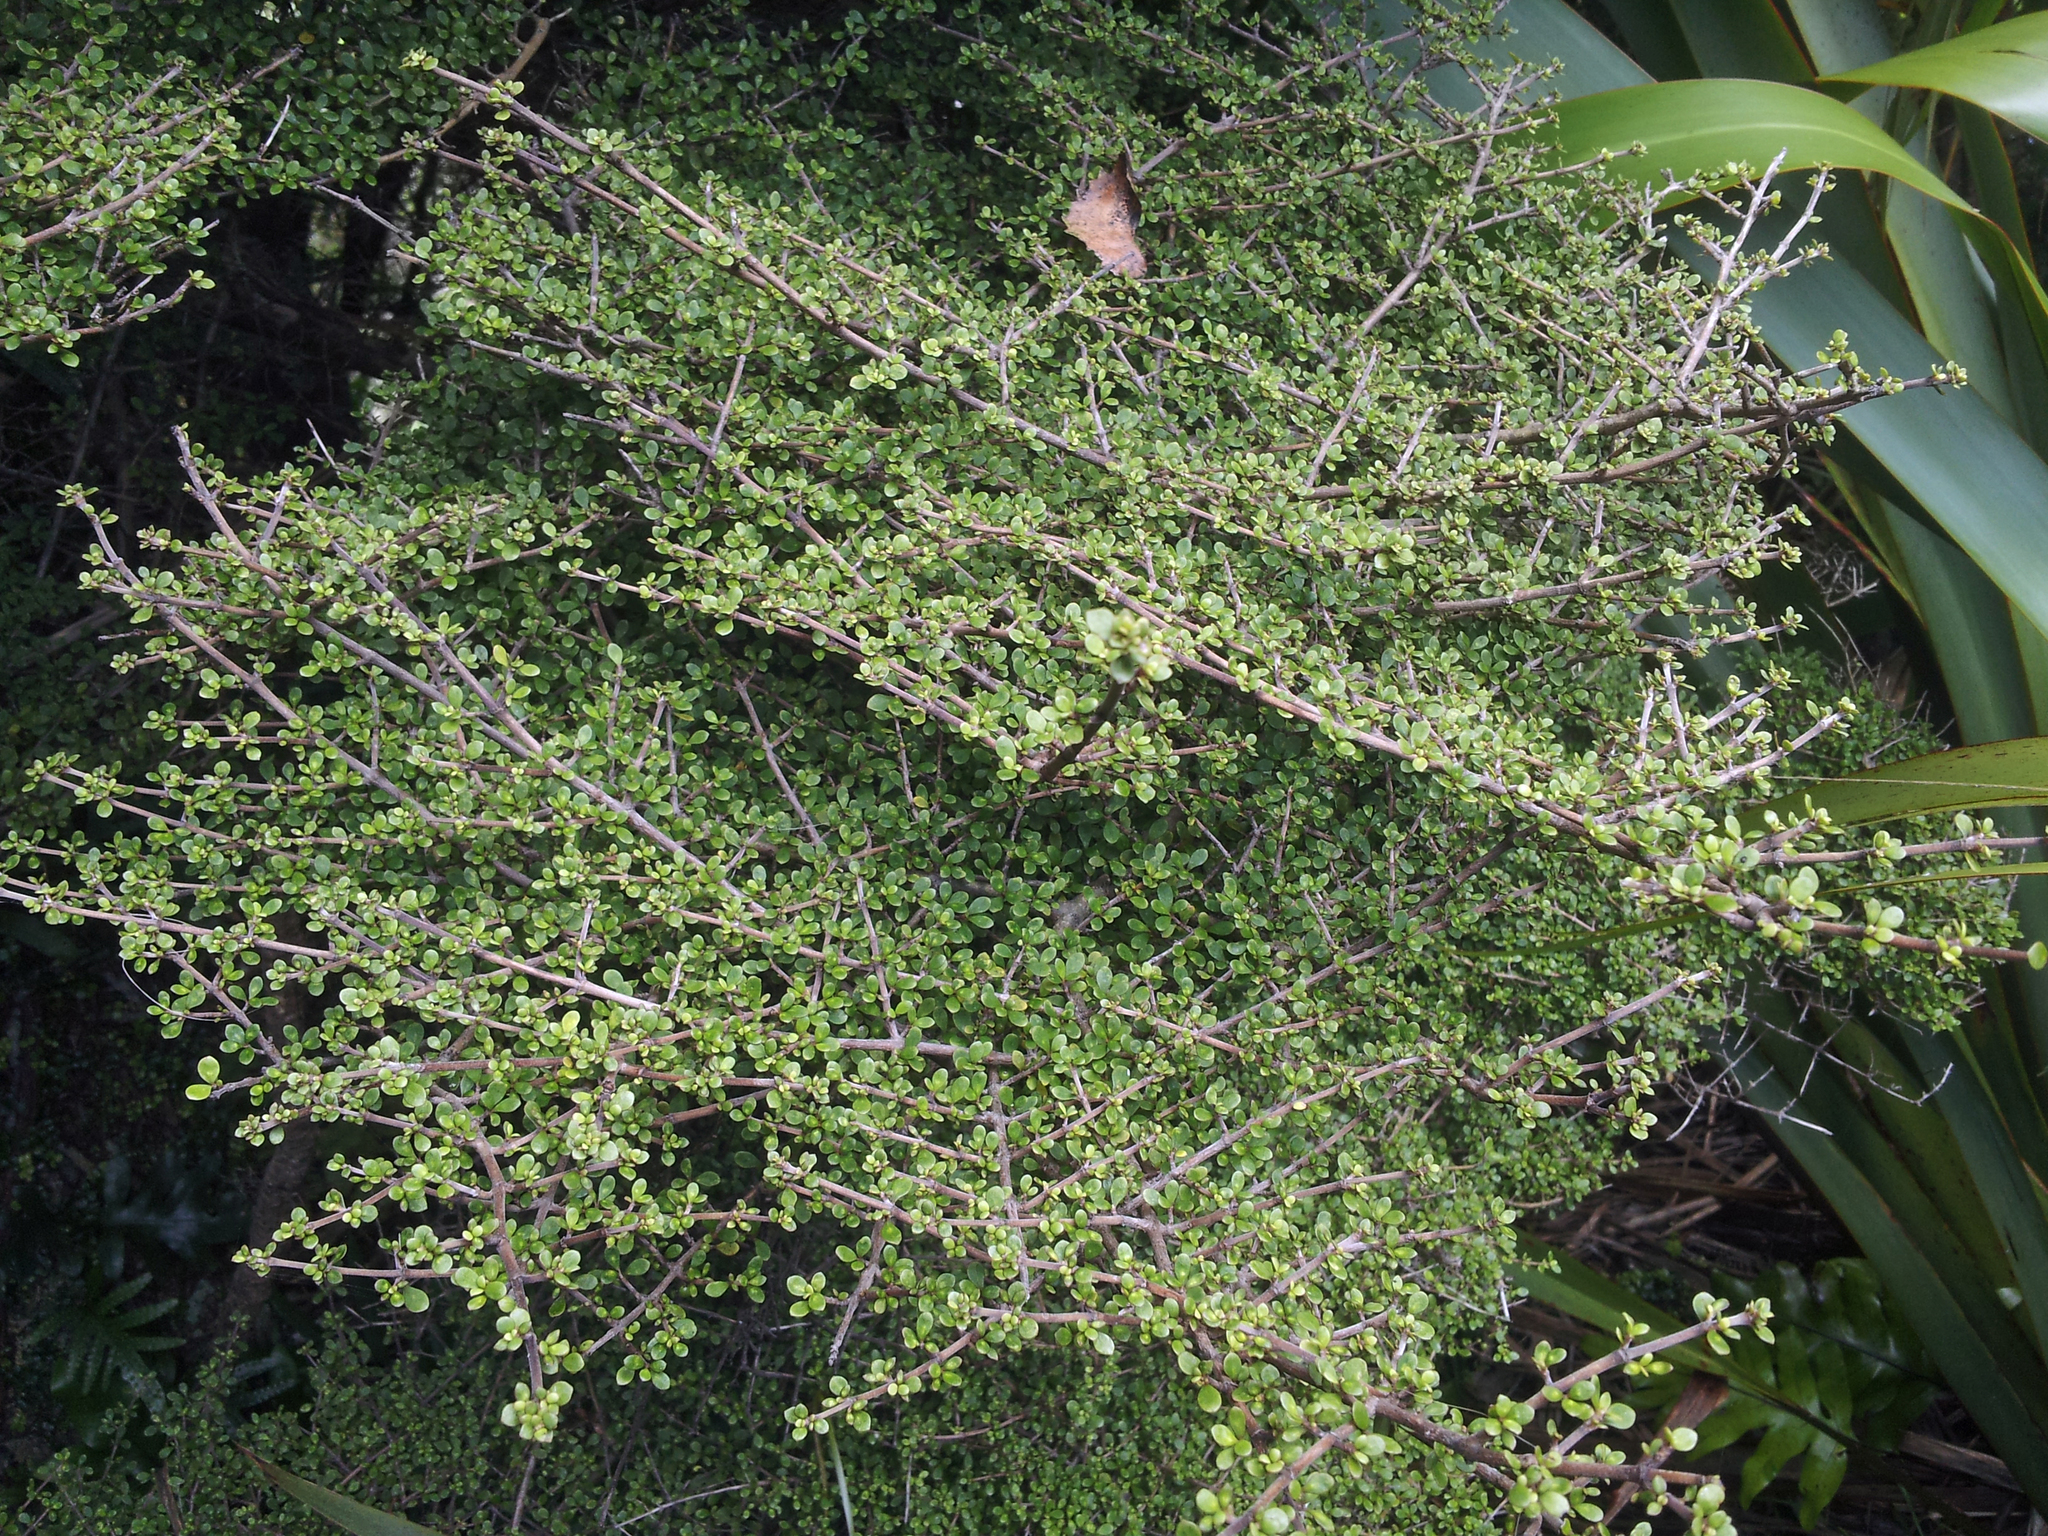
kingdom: Plantae
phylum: Tracheophyta
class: Magnoliopsida
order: Gentianales
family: Rubiaceae
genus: Coprosma
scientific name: Coprosma parviflora
